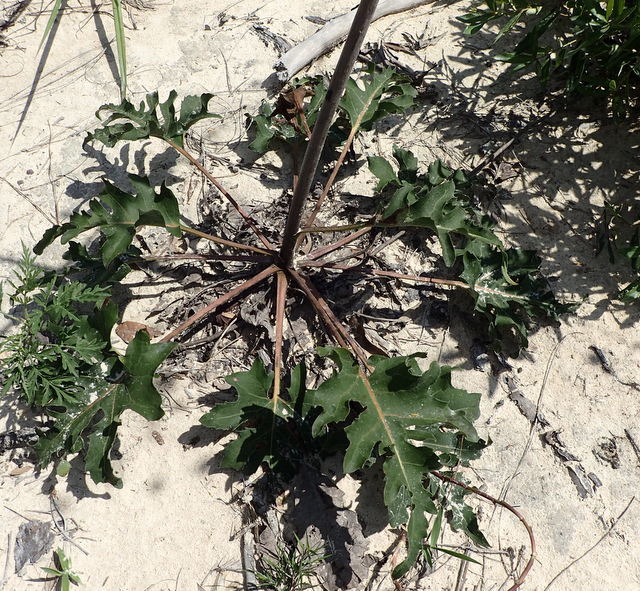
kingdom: Plantae
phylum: Tracheophyta
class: Magnoliopsida
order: Asterales
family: Asteraceae
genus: Silphium
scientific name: Silphium compositum
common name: Lesser basal-leaf rosinweed
